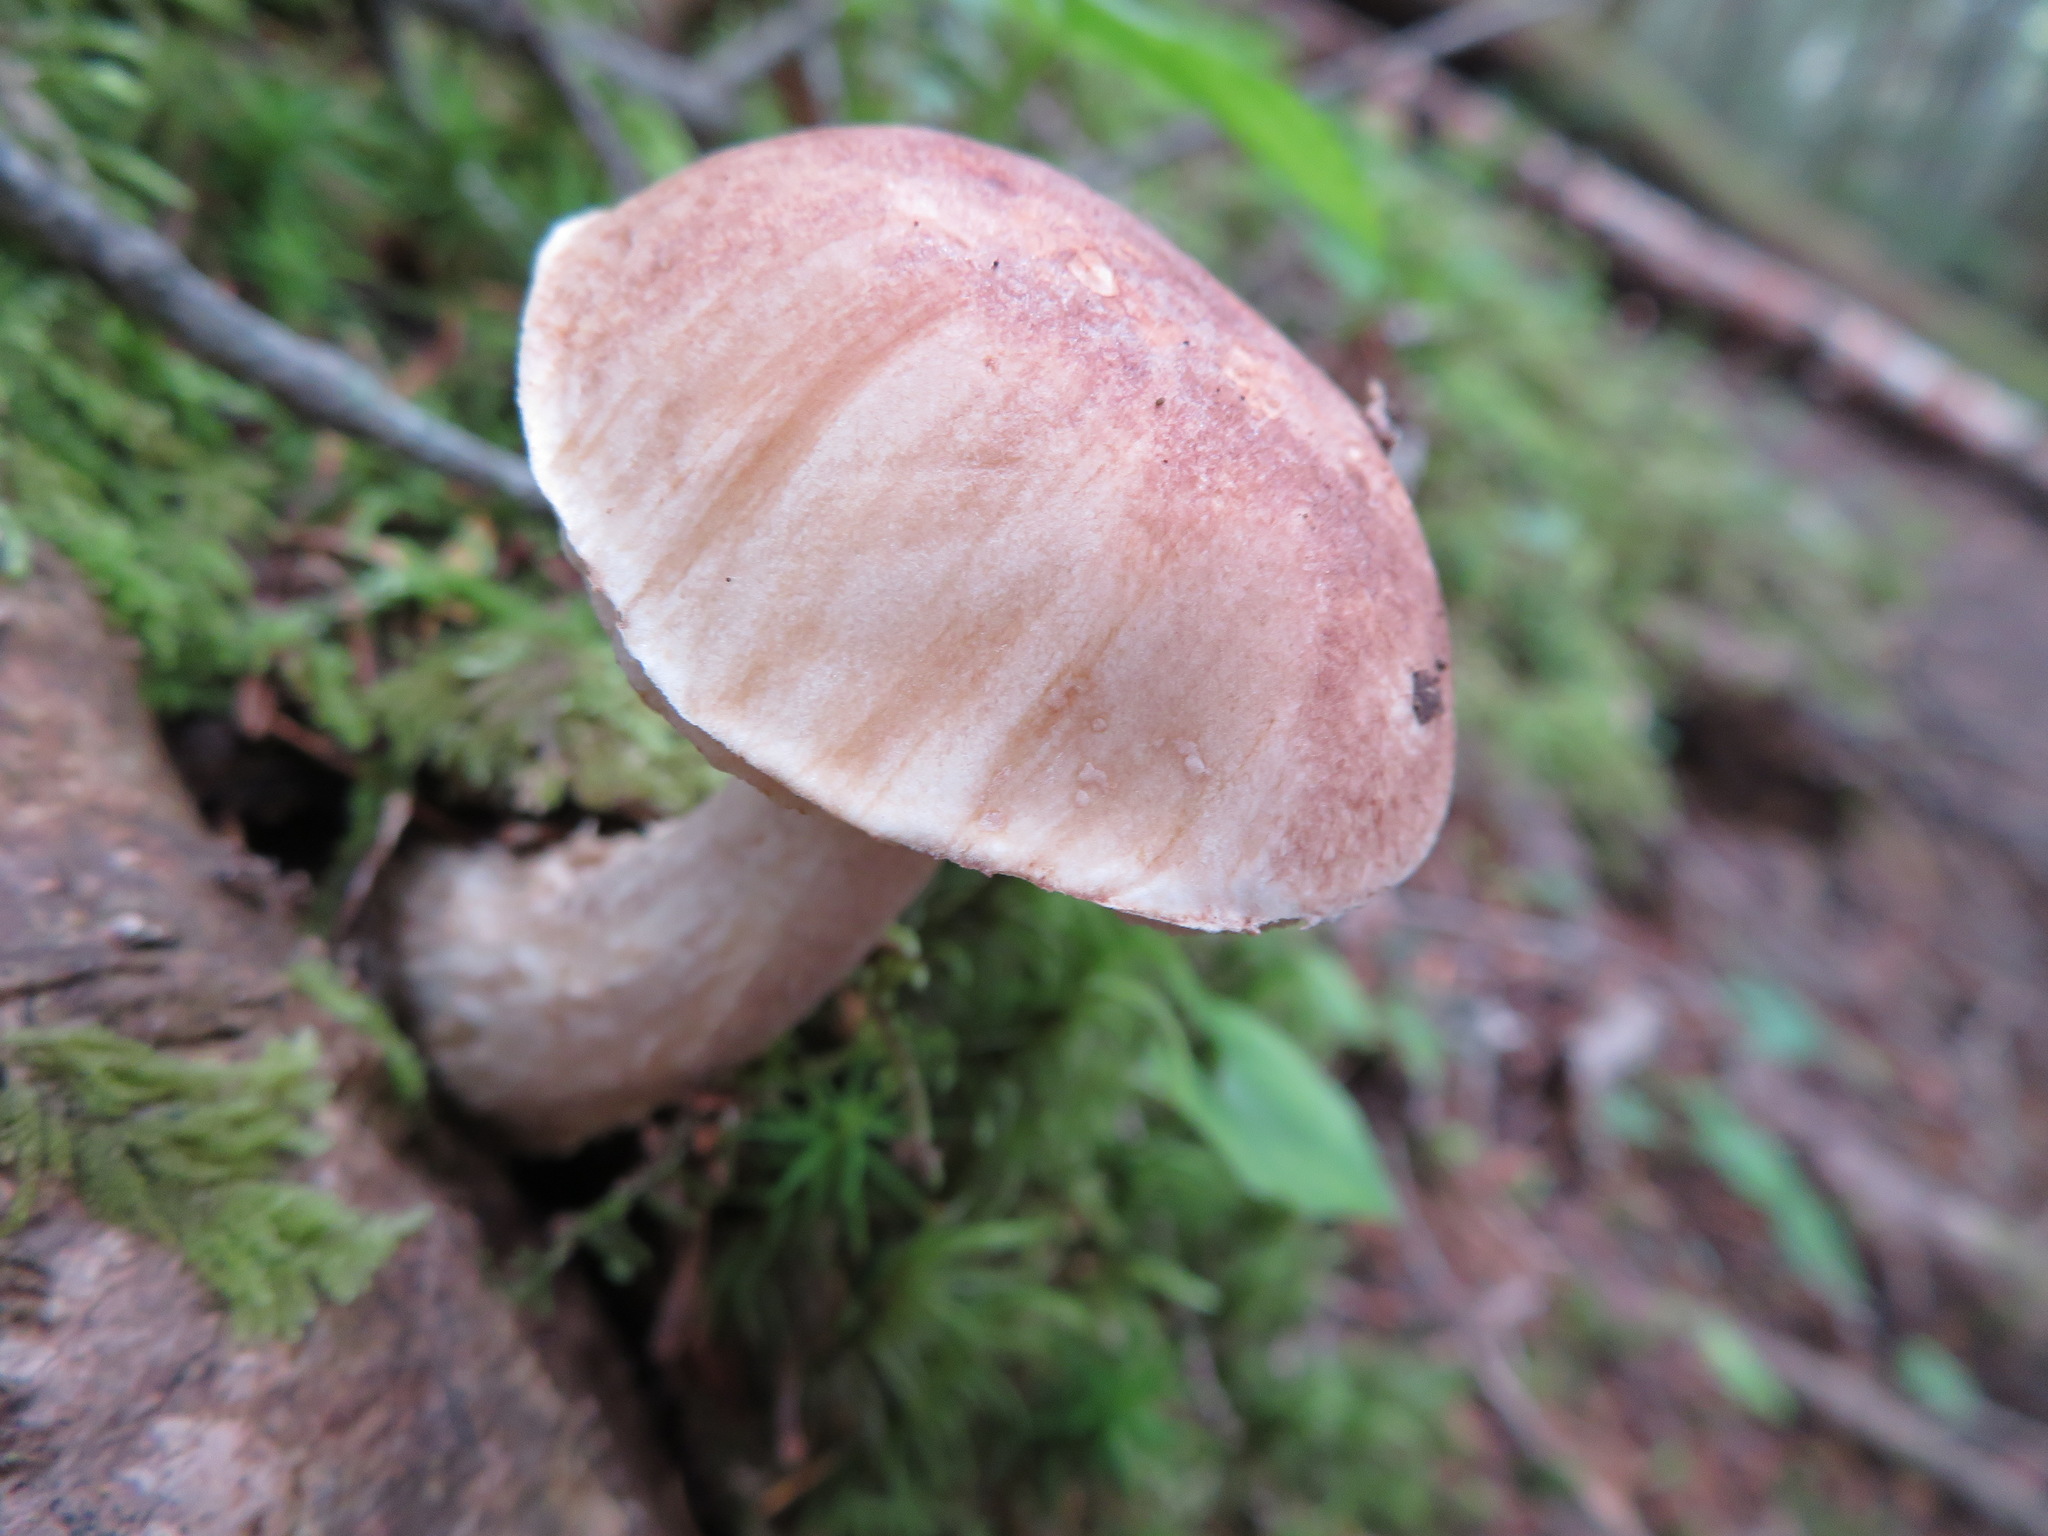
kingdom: Fungi
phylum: Basidiomycota
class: Agaricomycetes
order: Boletales
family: Boletaceae
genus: Leccinum
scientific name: Leccinum scabrum
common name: Blushing bolete
